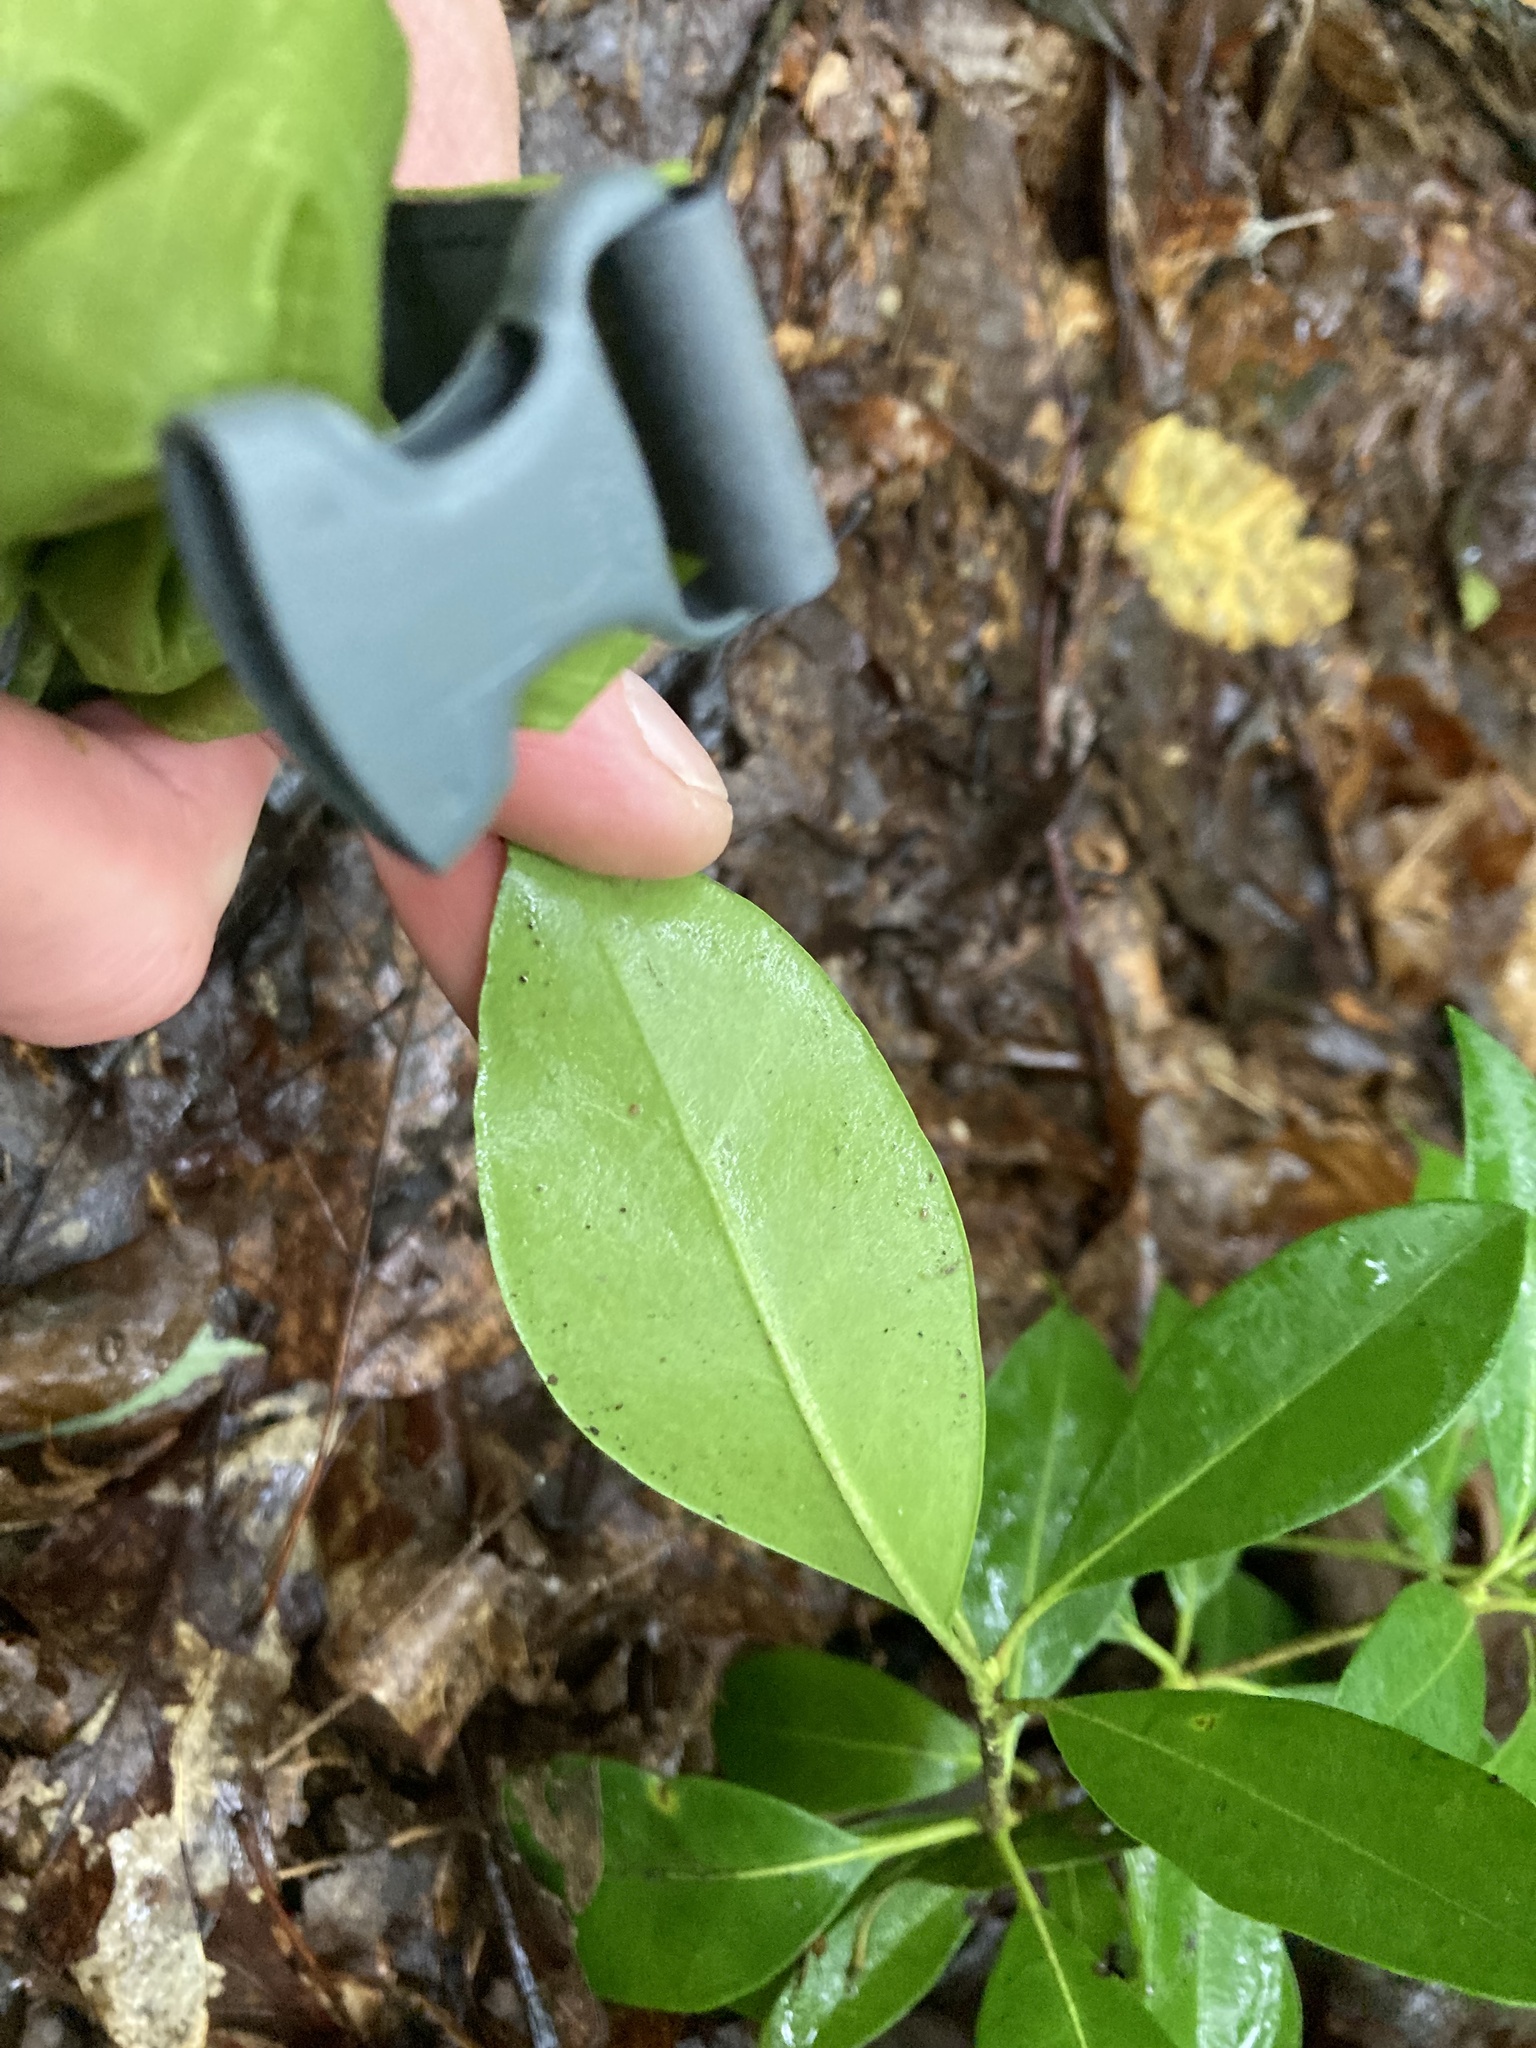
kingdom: Plantae
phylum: Tracheophyta
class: Magnoliopsida
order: Ericales
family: Ericaceae
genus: Kalmia
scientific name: Kalmia latifolia
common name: Mountain-laurel
